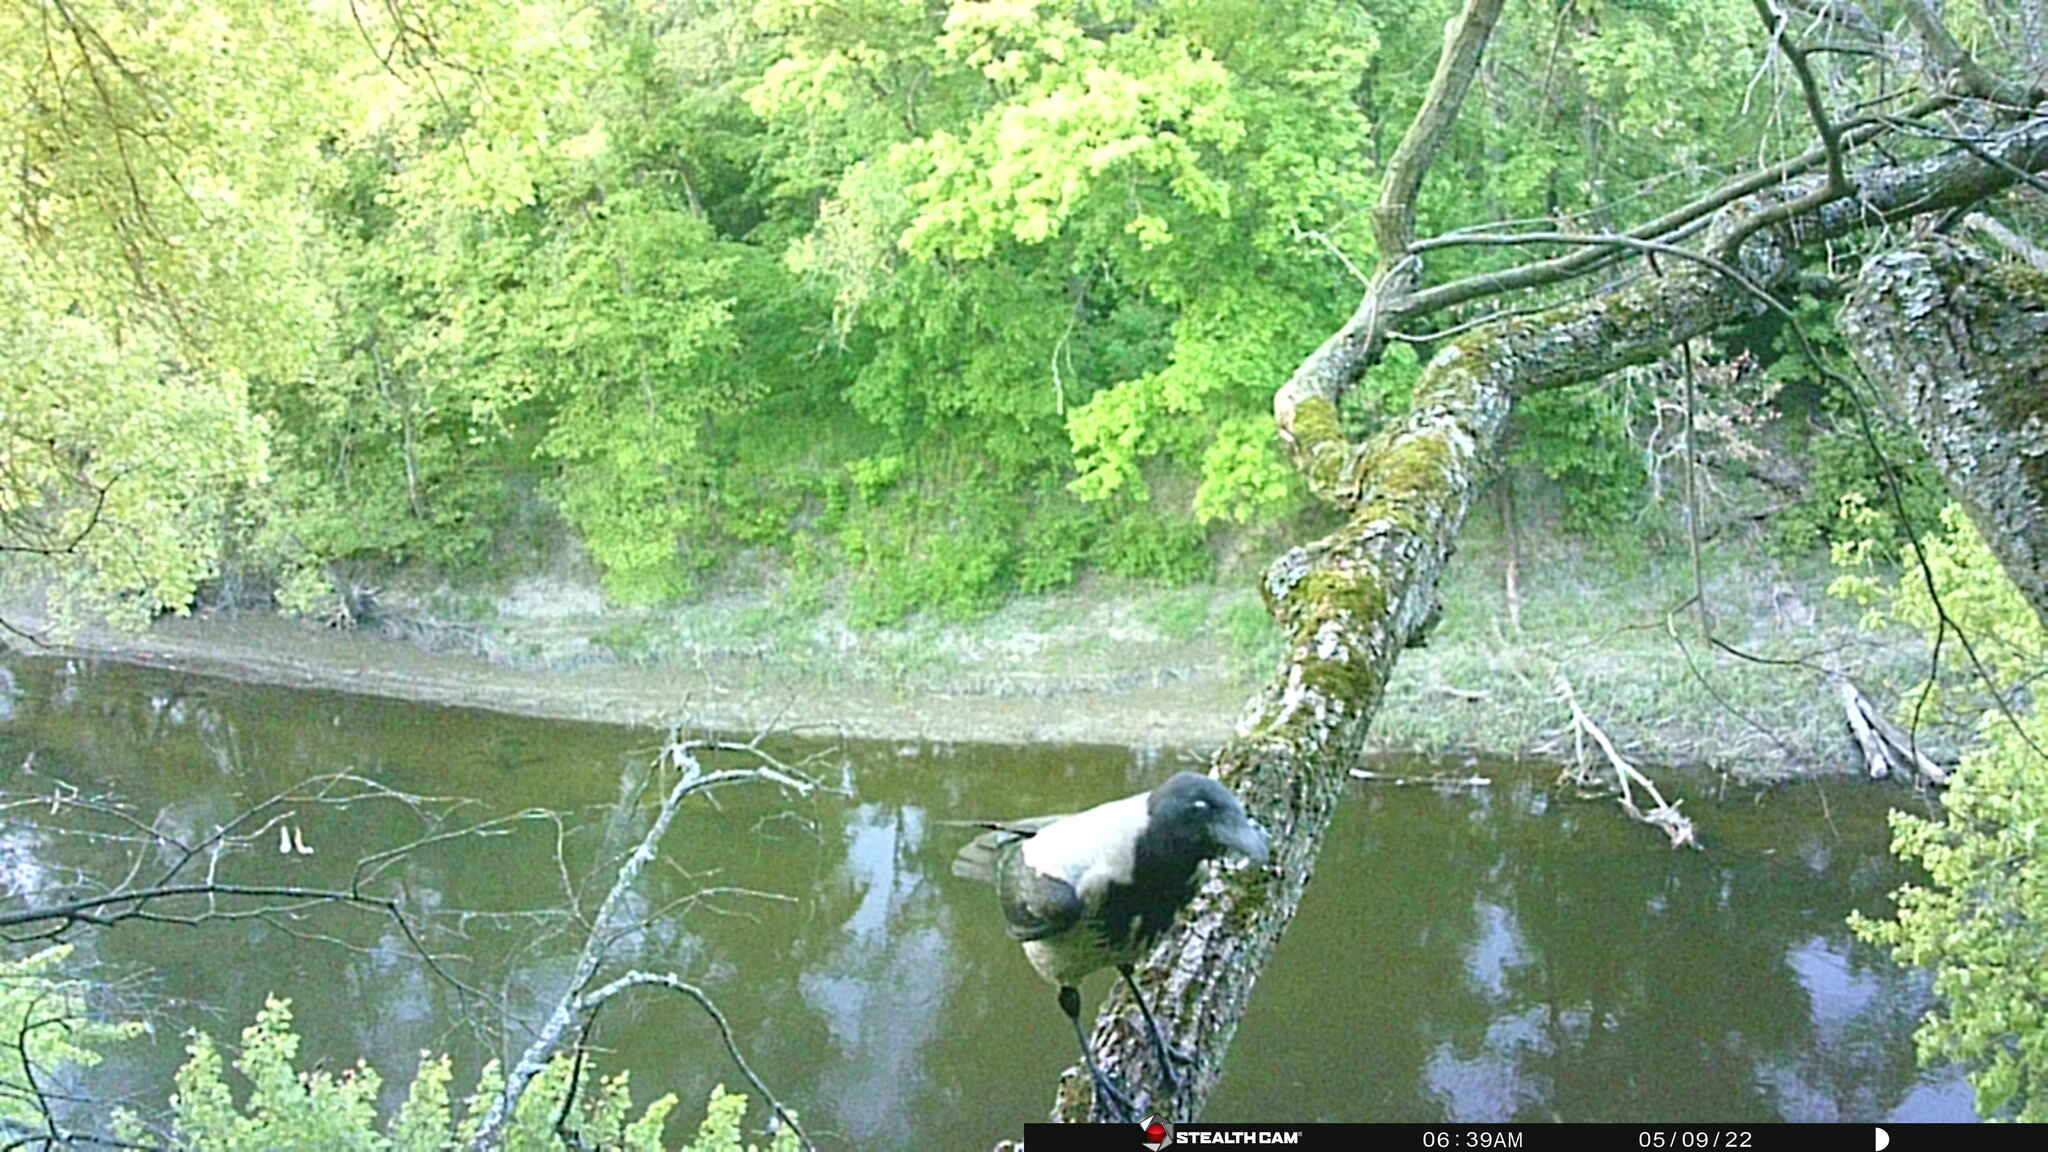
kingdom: Animalia
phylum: Chordata
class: Aves
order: Passeriformes
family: Corvidae
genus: Corvus
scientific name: Corvus cornix
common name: Hooded crow
